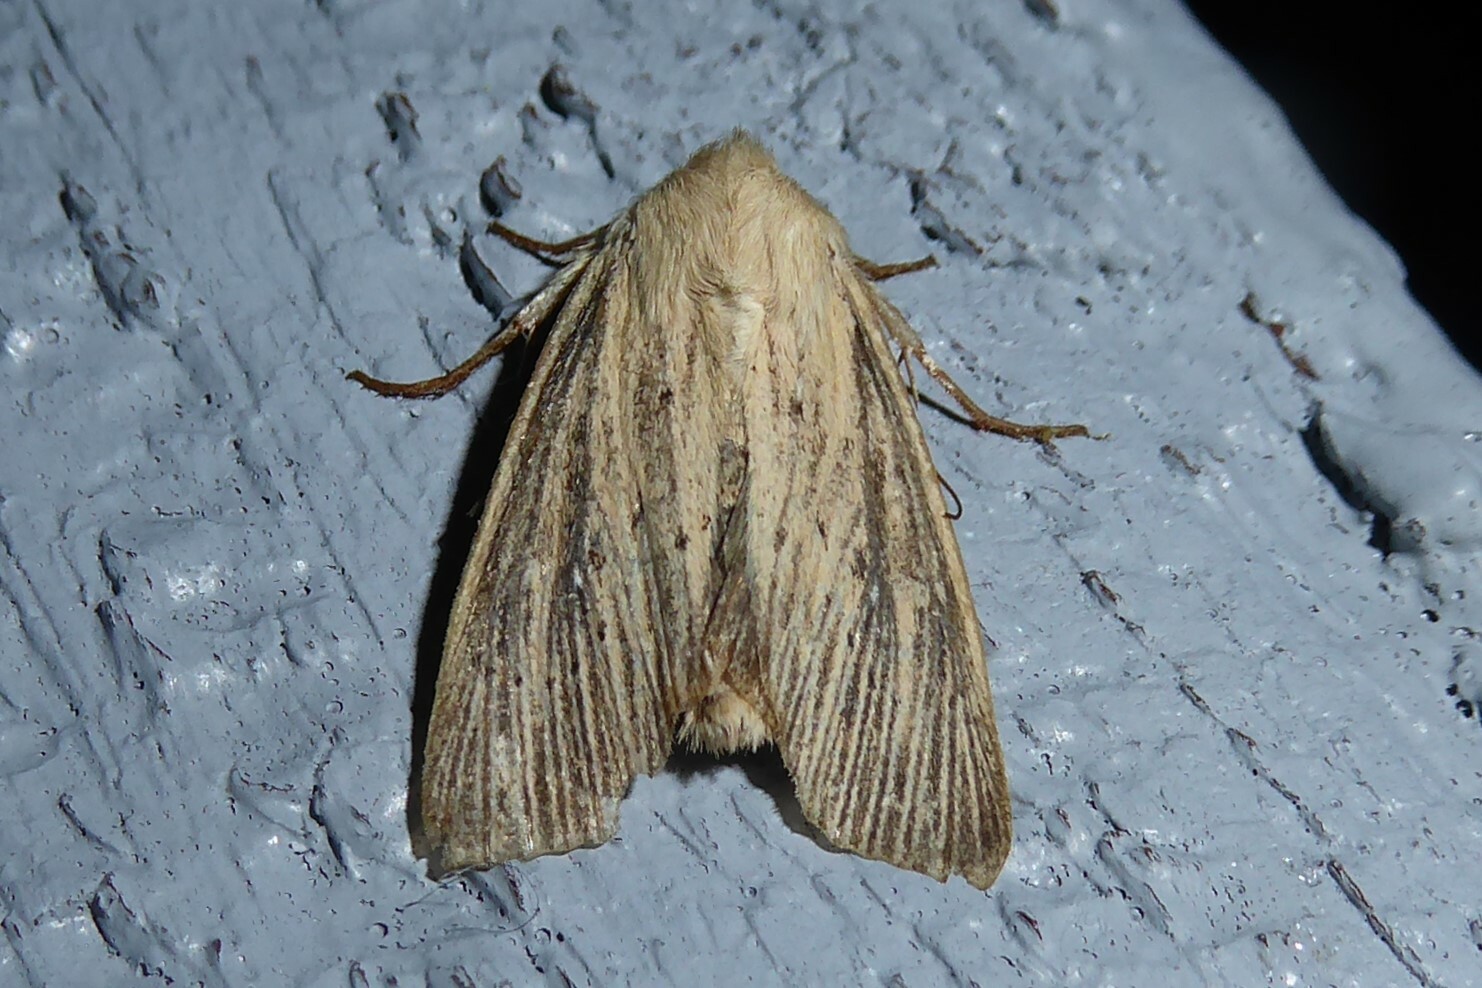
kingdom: Animalia
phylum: Arthropoda
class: Insecta
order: Lepidoptera
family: Noctuidae
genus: Ichneutica
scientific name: Ichneutica arotis
